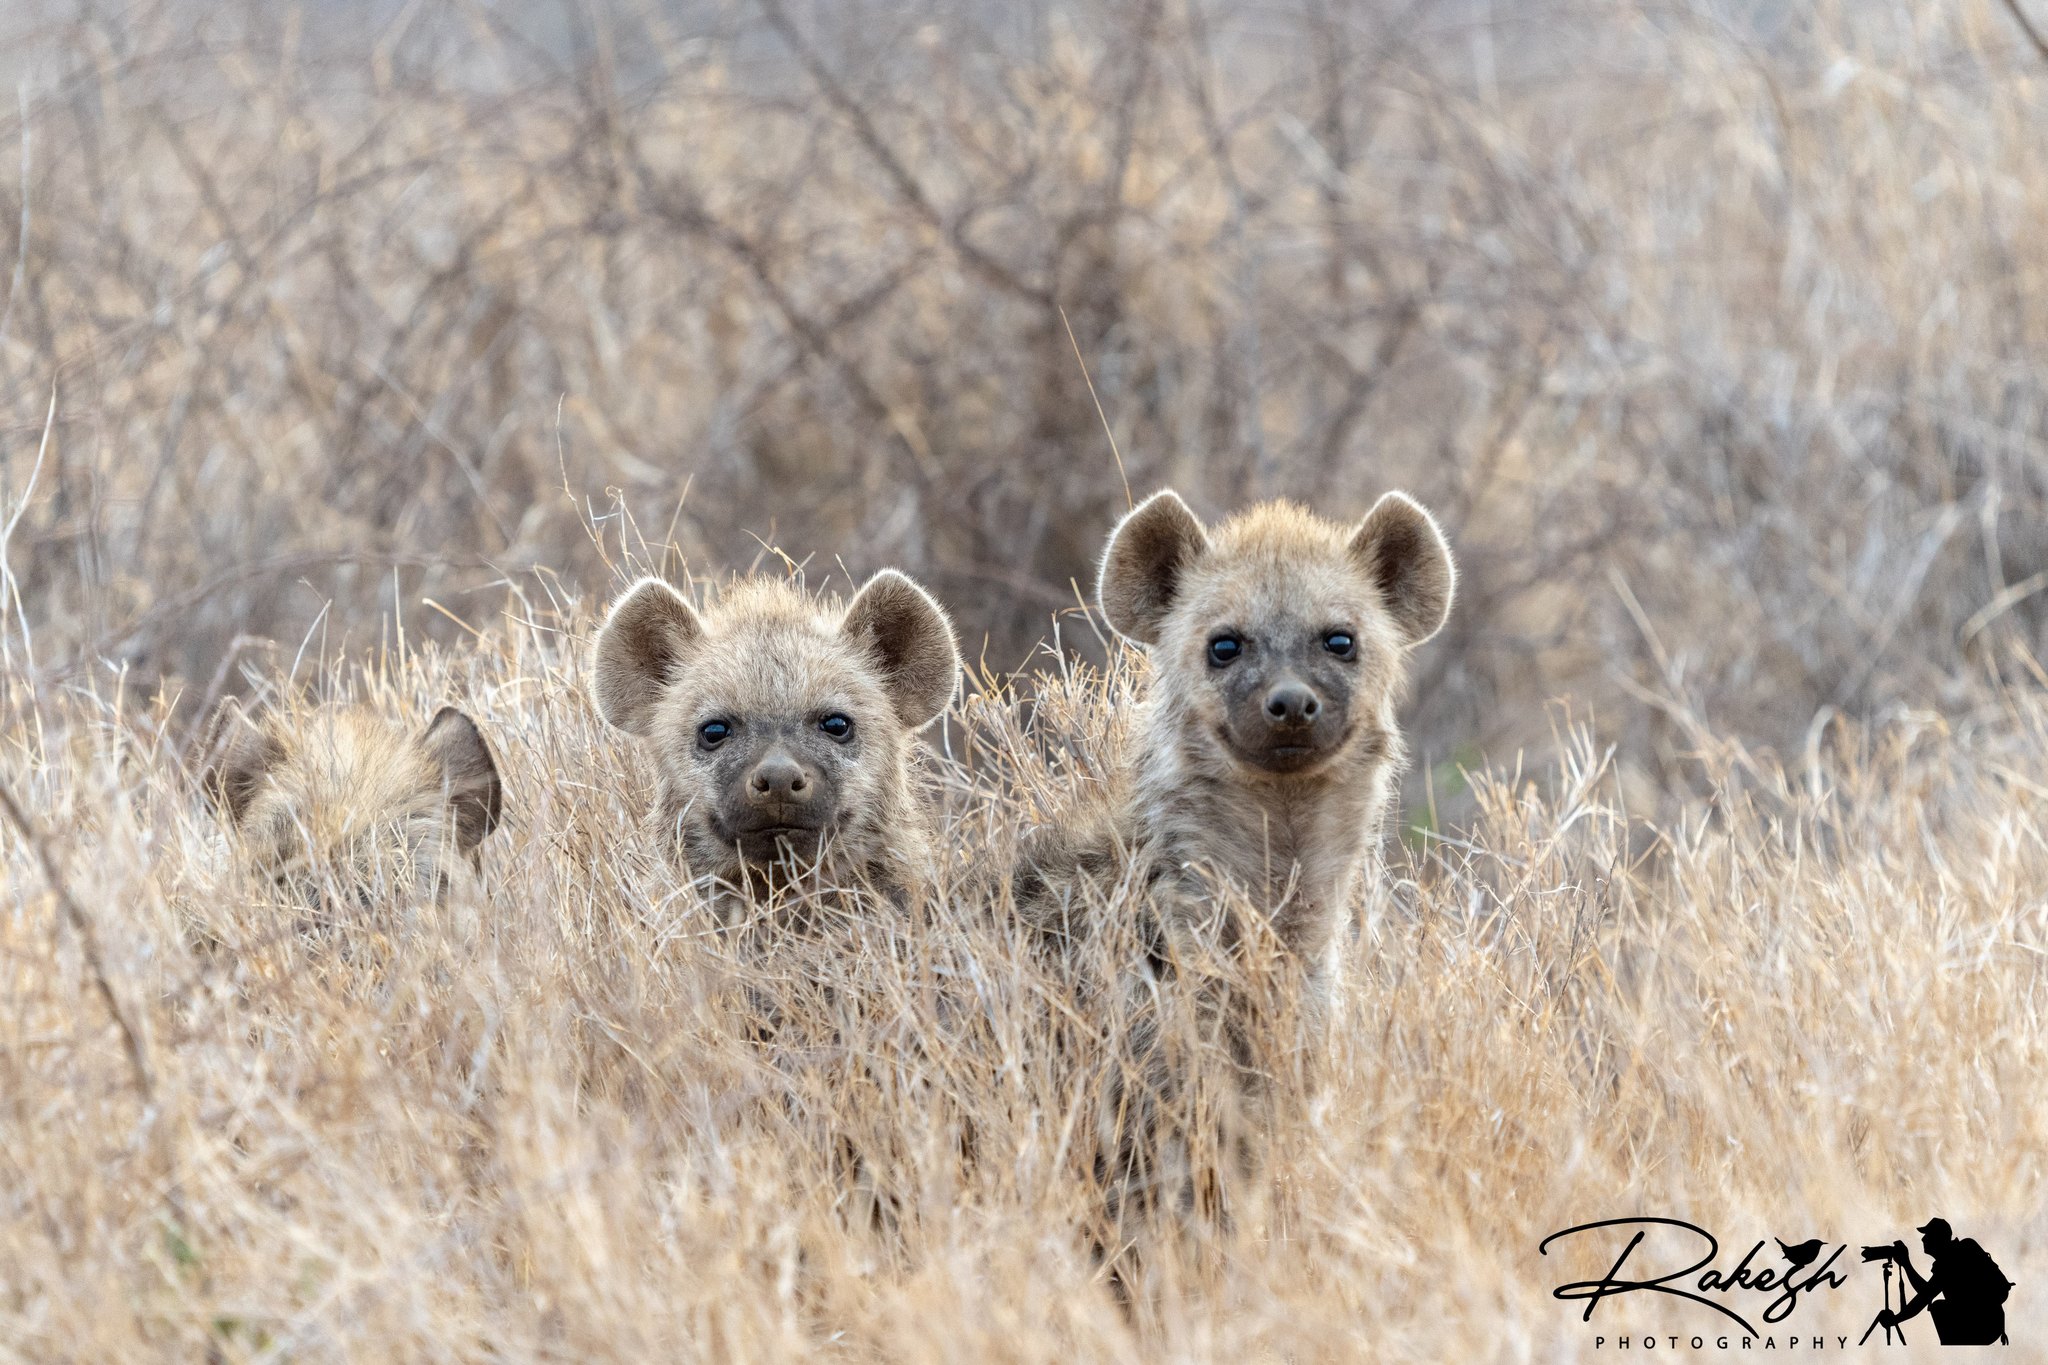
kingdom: Animalia
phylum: Chordata
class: Mammalia
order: Carnivora
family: Hyaenidae
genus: Crocuta
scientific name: Crocuta crocuta
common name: Spotted hyaena
